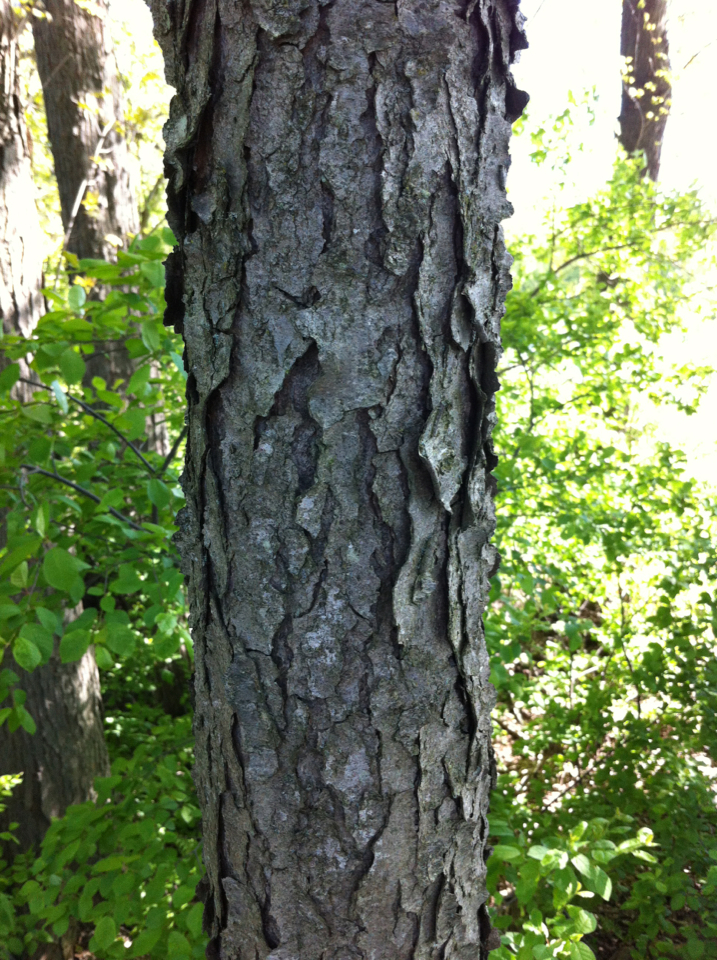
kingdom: Plantae
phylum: Tracheophyta
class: Magnoliopsida
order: Rosales
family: Rosaceae
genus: Prunus
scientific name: Prunus serotina
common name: Black cherry
